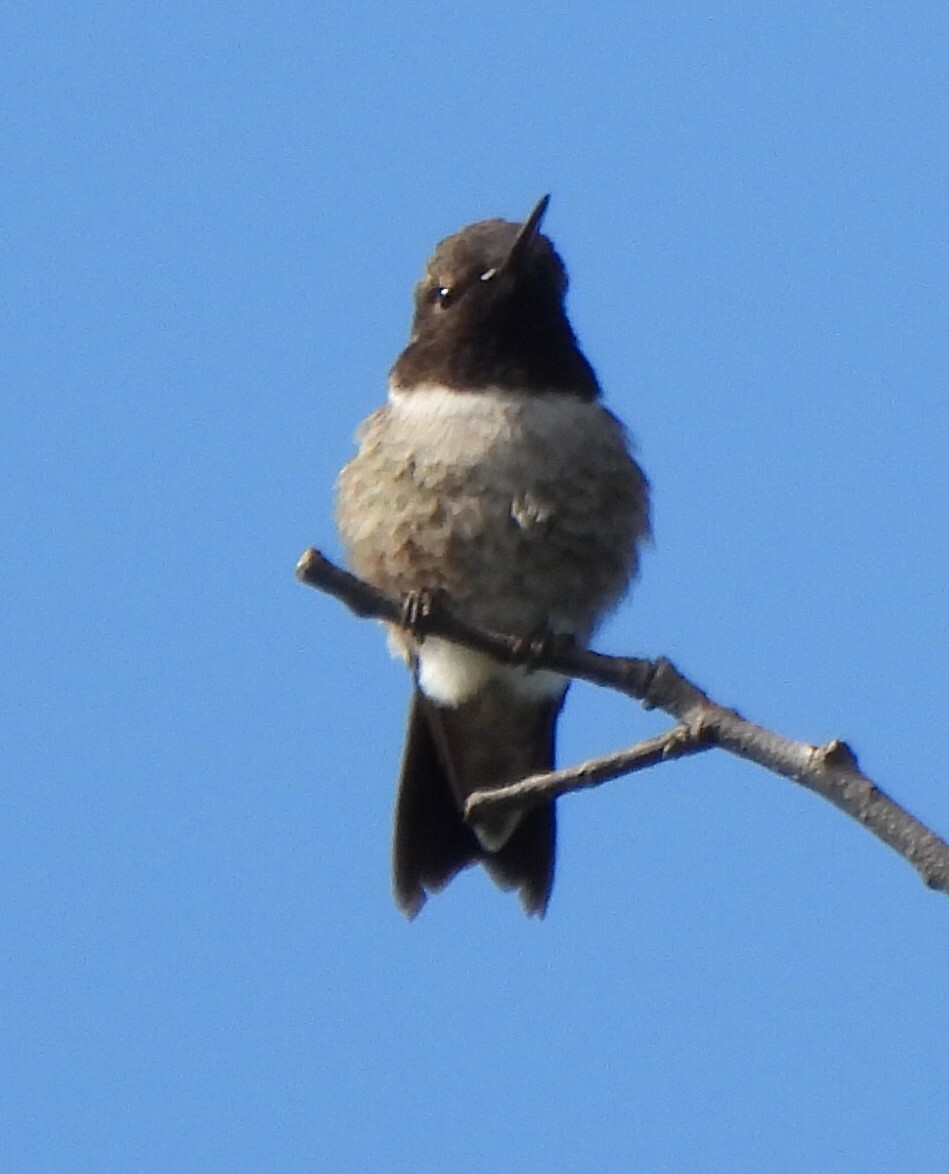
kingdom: Animalia
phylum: Chordata
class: Aves
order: Apodiformes
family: Trochilidae
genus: Archilochus
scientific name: Archilochus alexandri
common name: Black-chinned hummingbird
